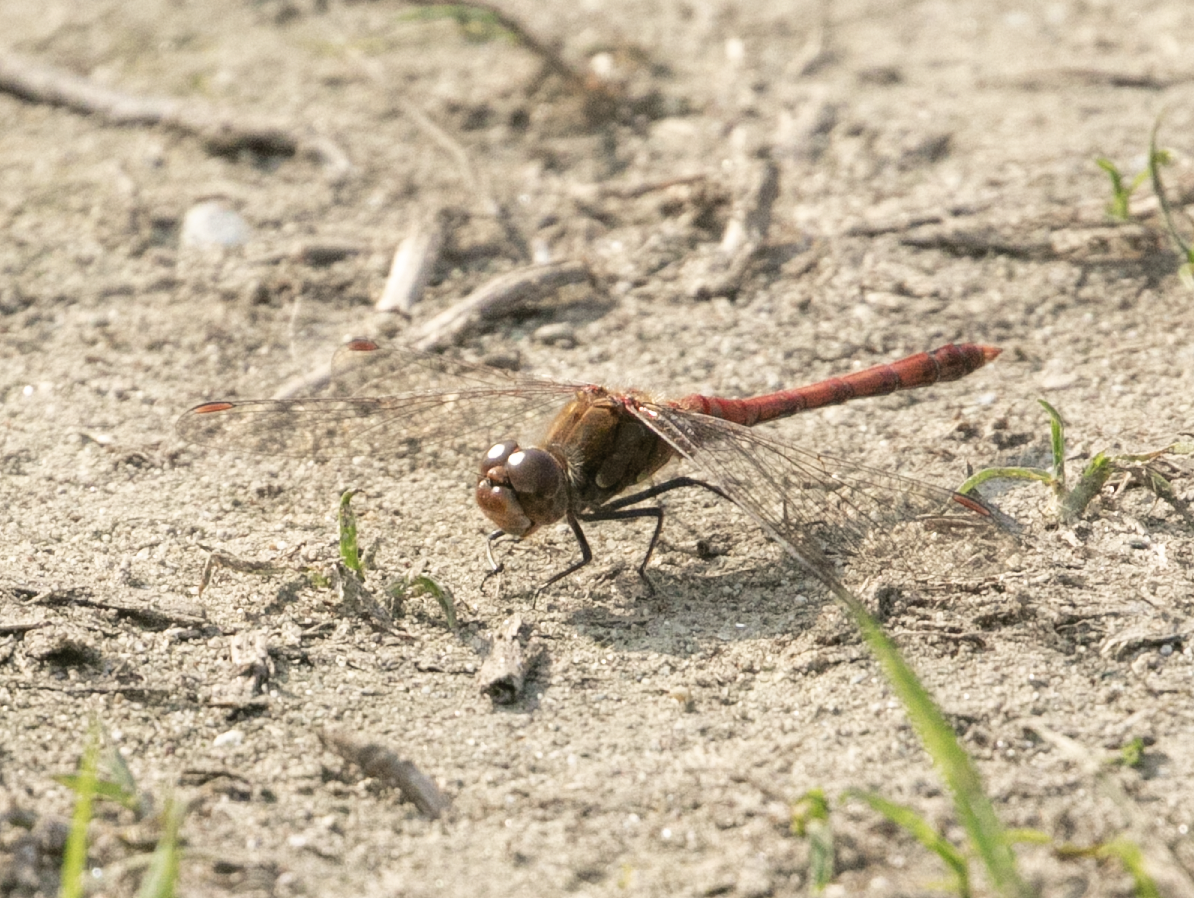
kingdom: Animalia
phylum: Arthropoda
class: Insecta
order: Odonata
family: Libellulidae
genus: Sympetrum
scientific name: Sympetrum striolatum
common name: Common darter
